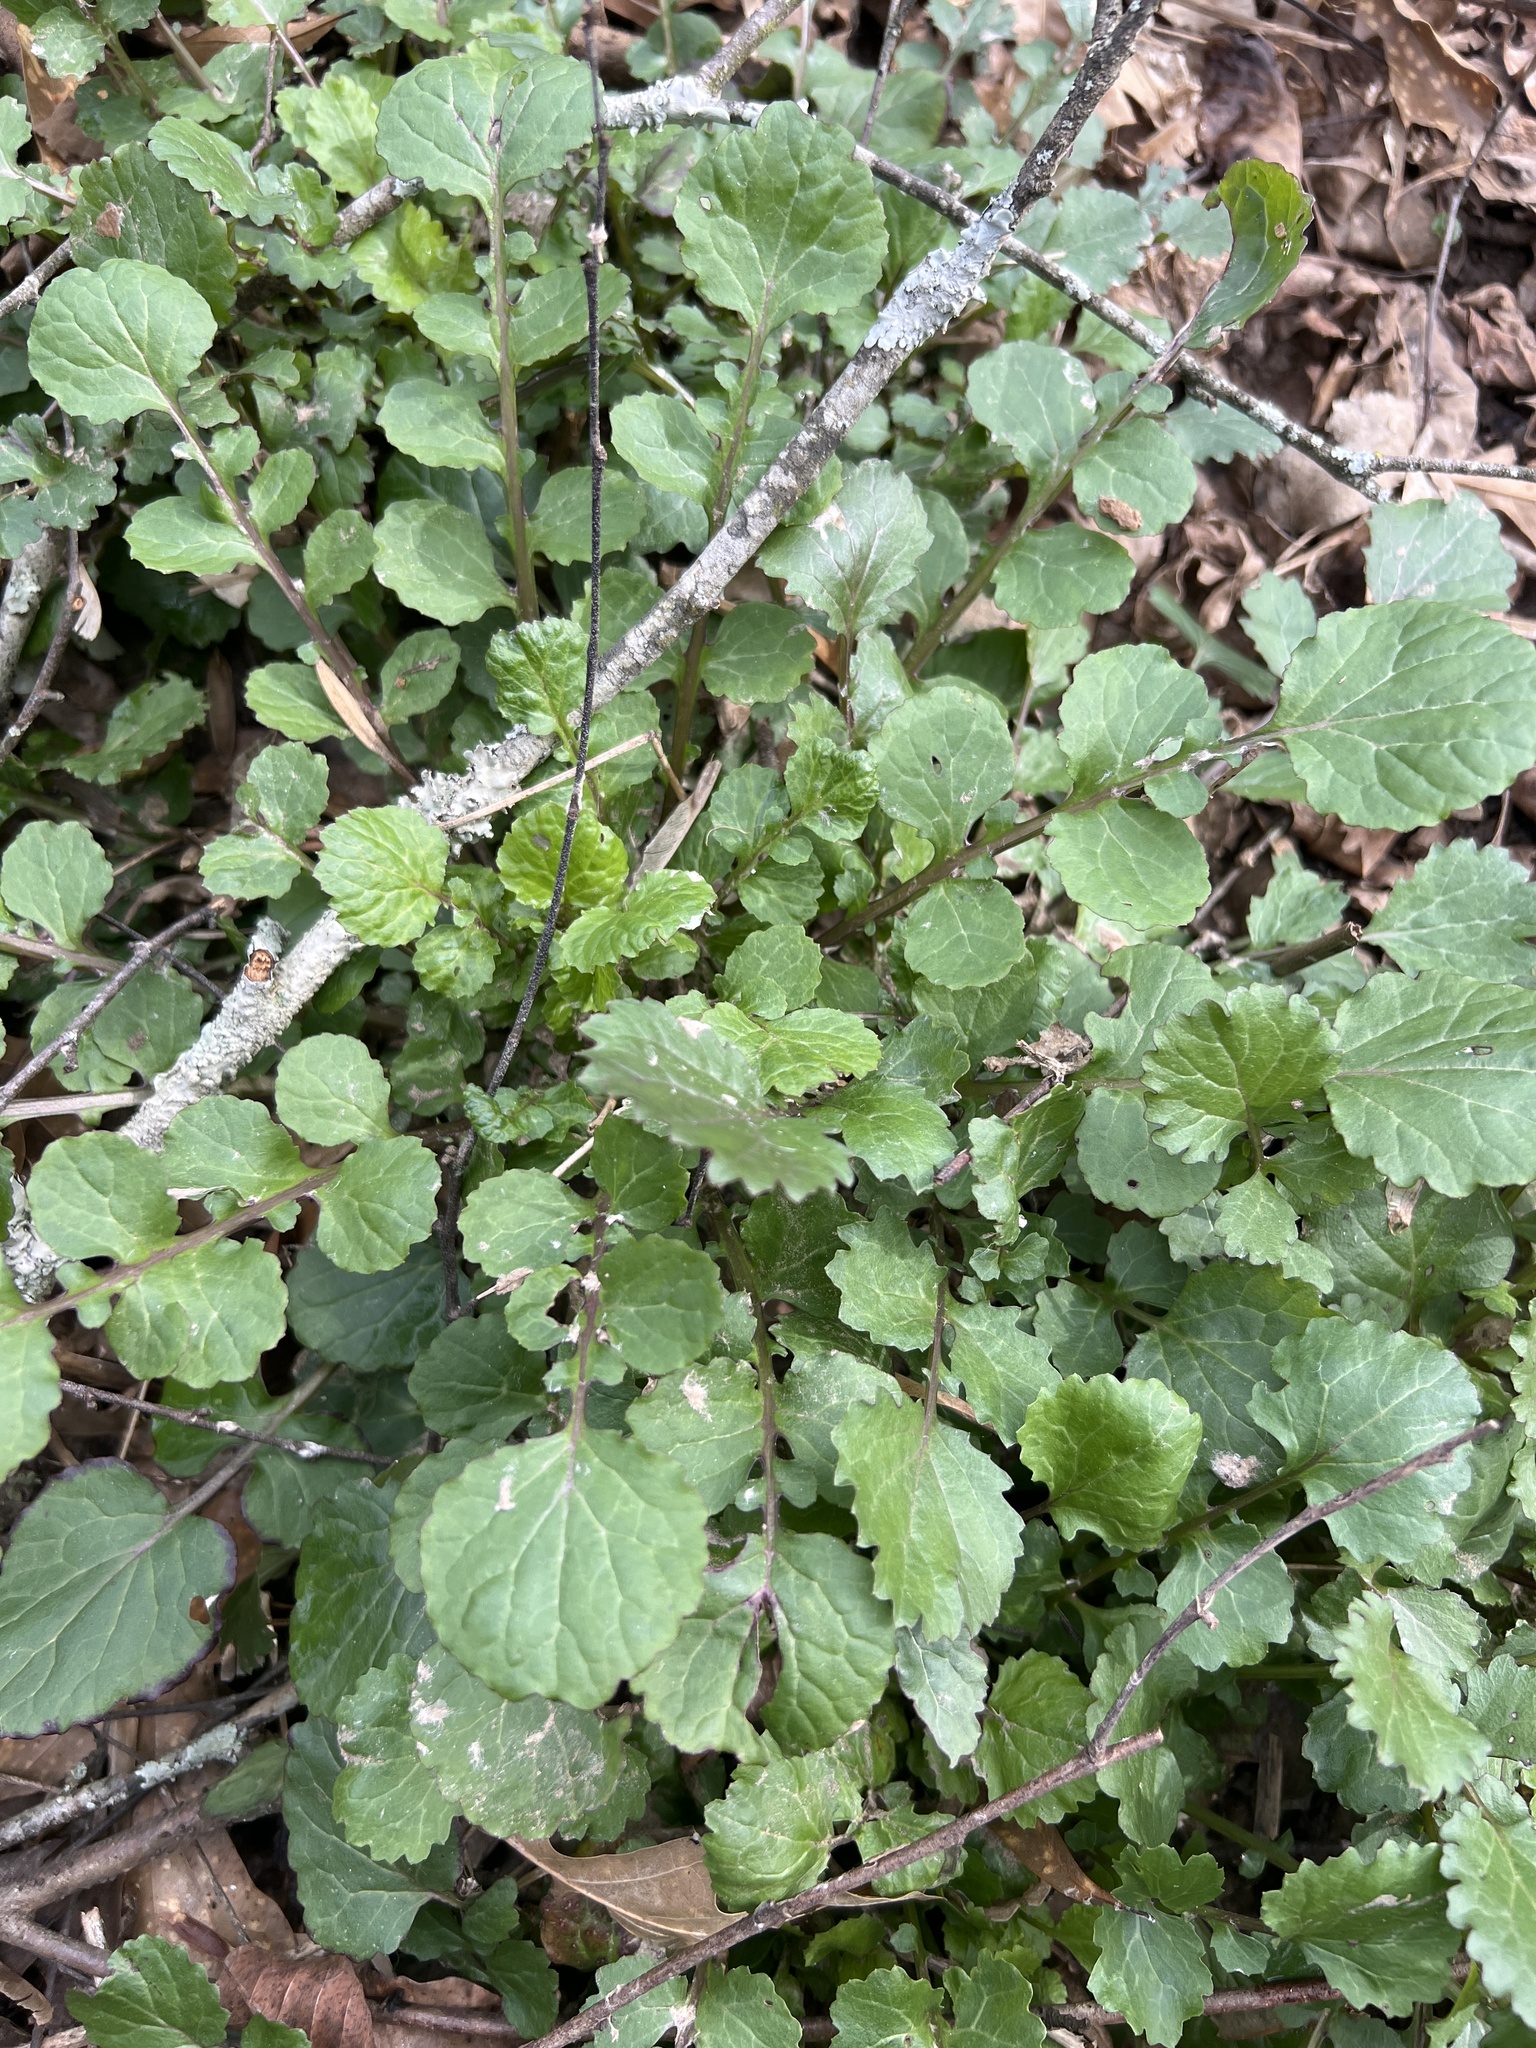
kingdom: Plantae
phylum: Tracheophyta
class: Magnoliopsida
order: Asterales
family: Asteraceae
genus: Packera
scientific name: Packera glabella
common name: Butterweed
